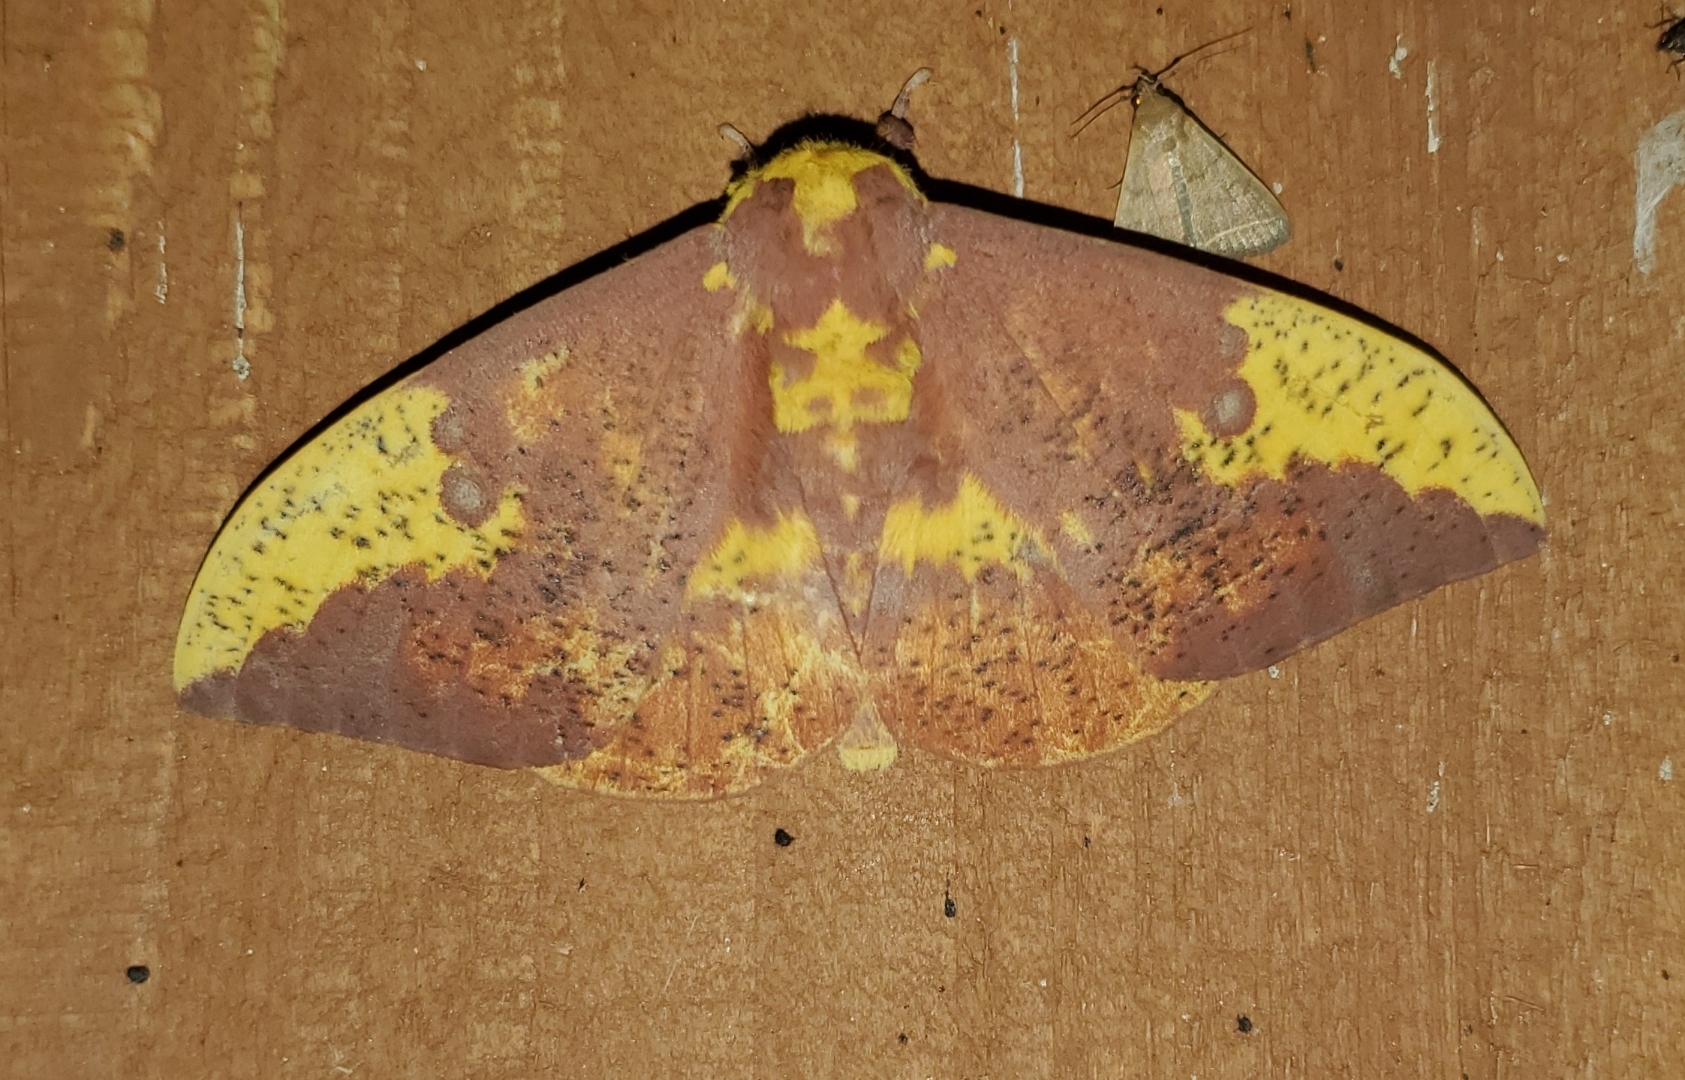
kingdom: Animalia
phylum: Arthropoda
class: Insecta
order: Lepidoptera
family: Saturniidae
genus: Eacles
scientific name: Eacles imperialis
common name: Imperial moth
